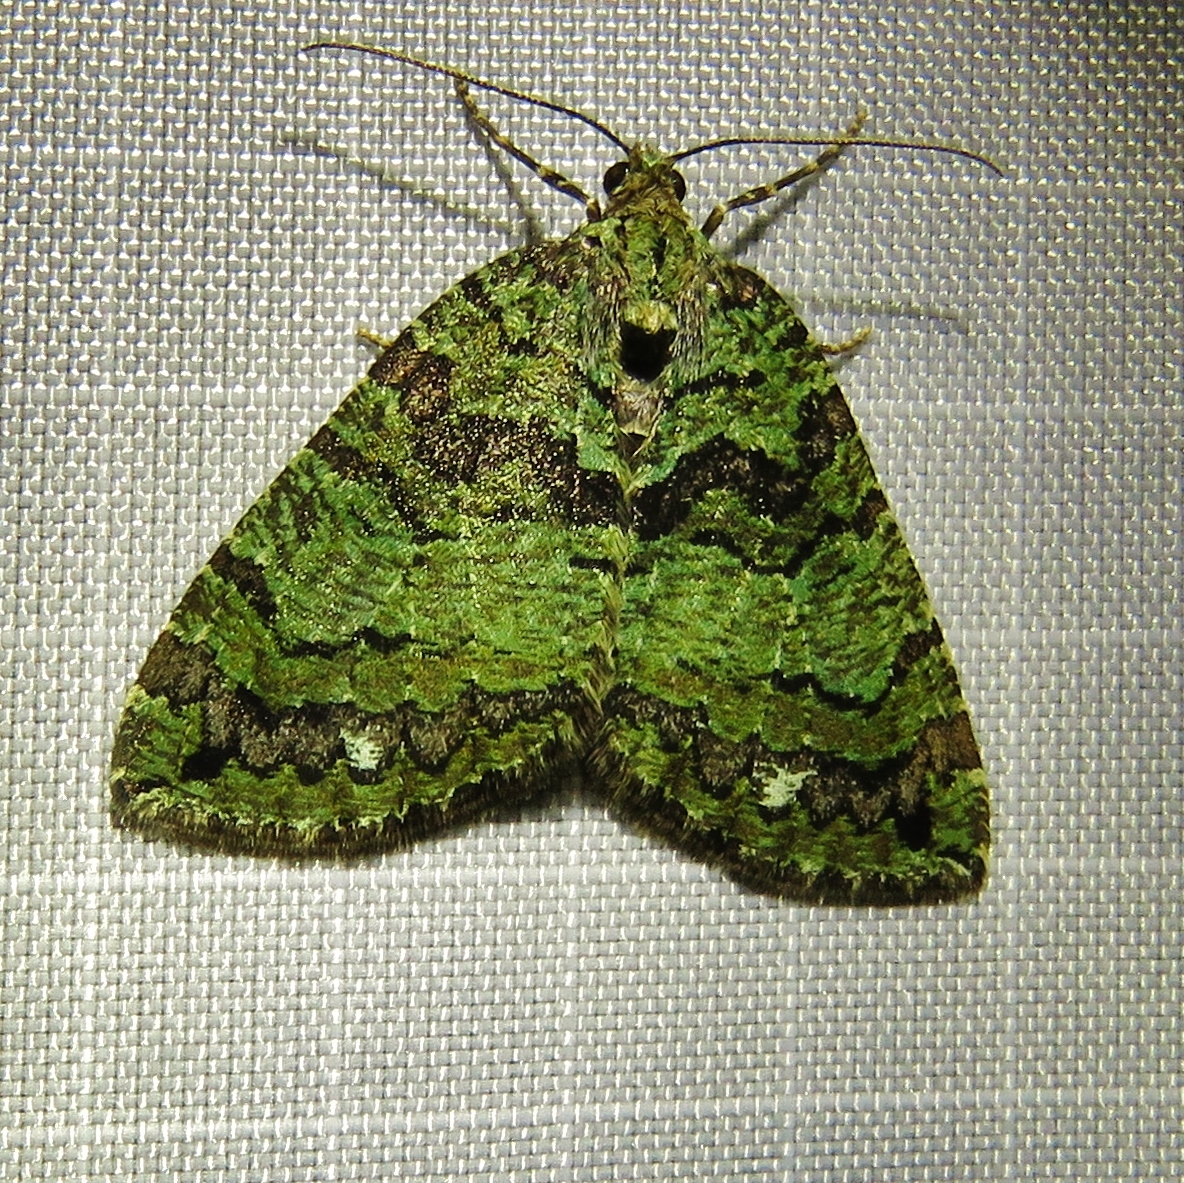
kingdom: Animalia
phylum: Arthropoda
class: Insecta
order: Lepidoptera
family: Geometridae
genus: Hydriomena
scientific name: Hydriomena furcata
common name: July highflyer
